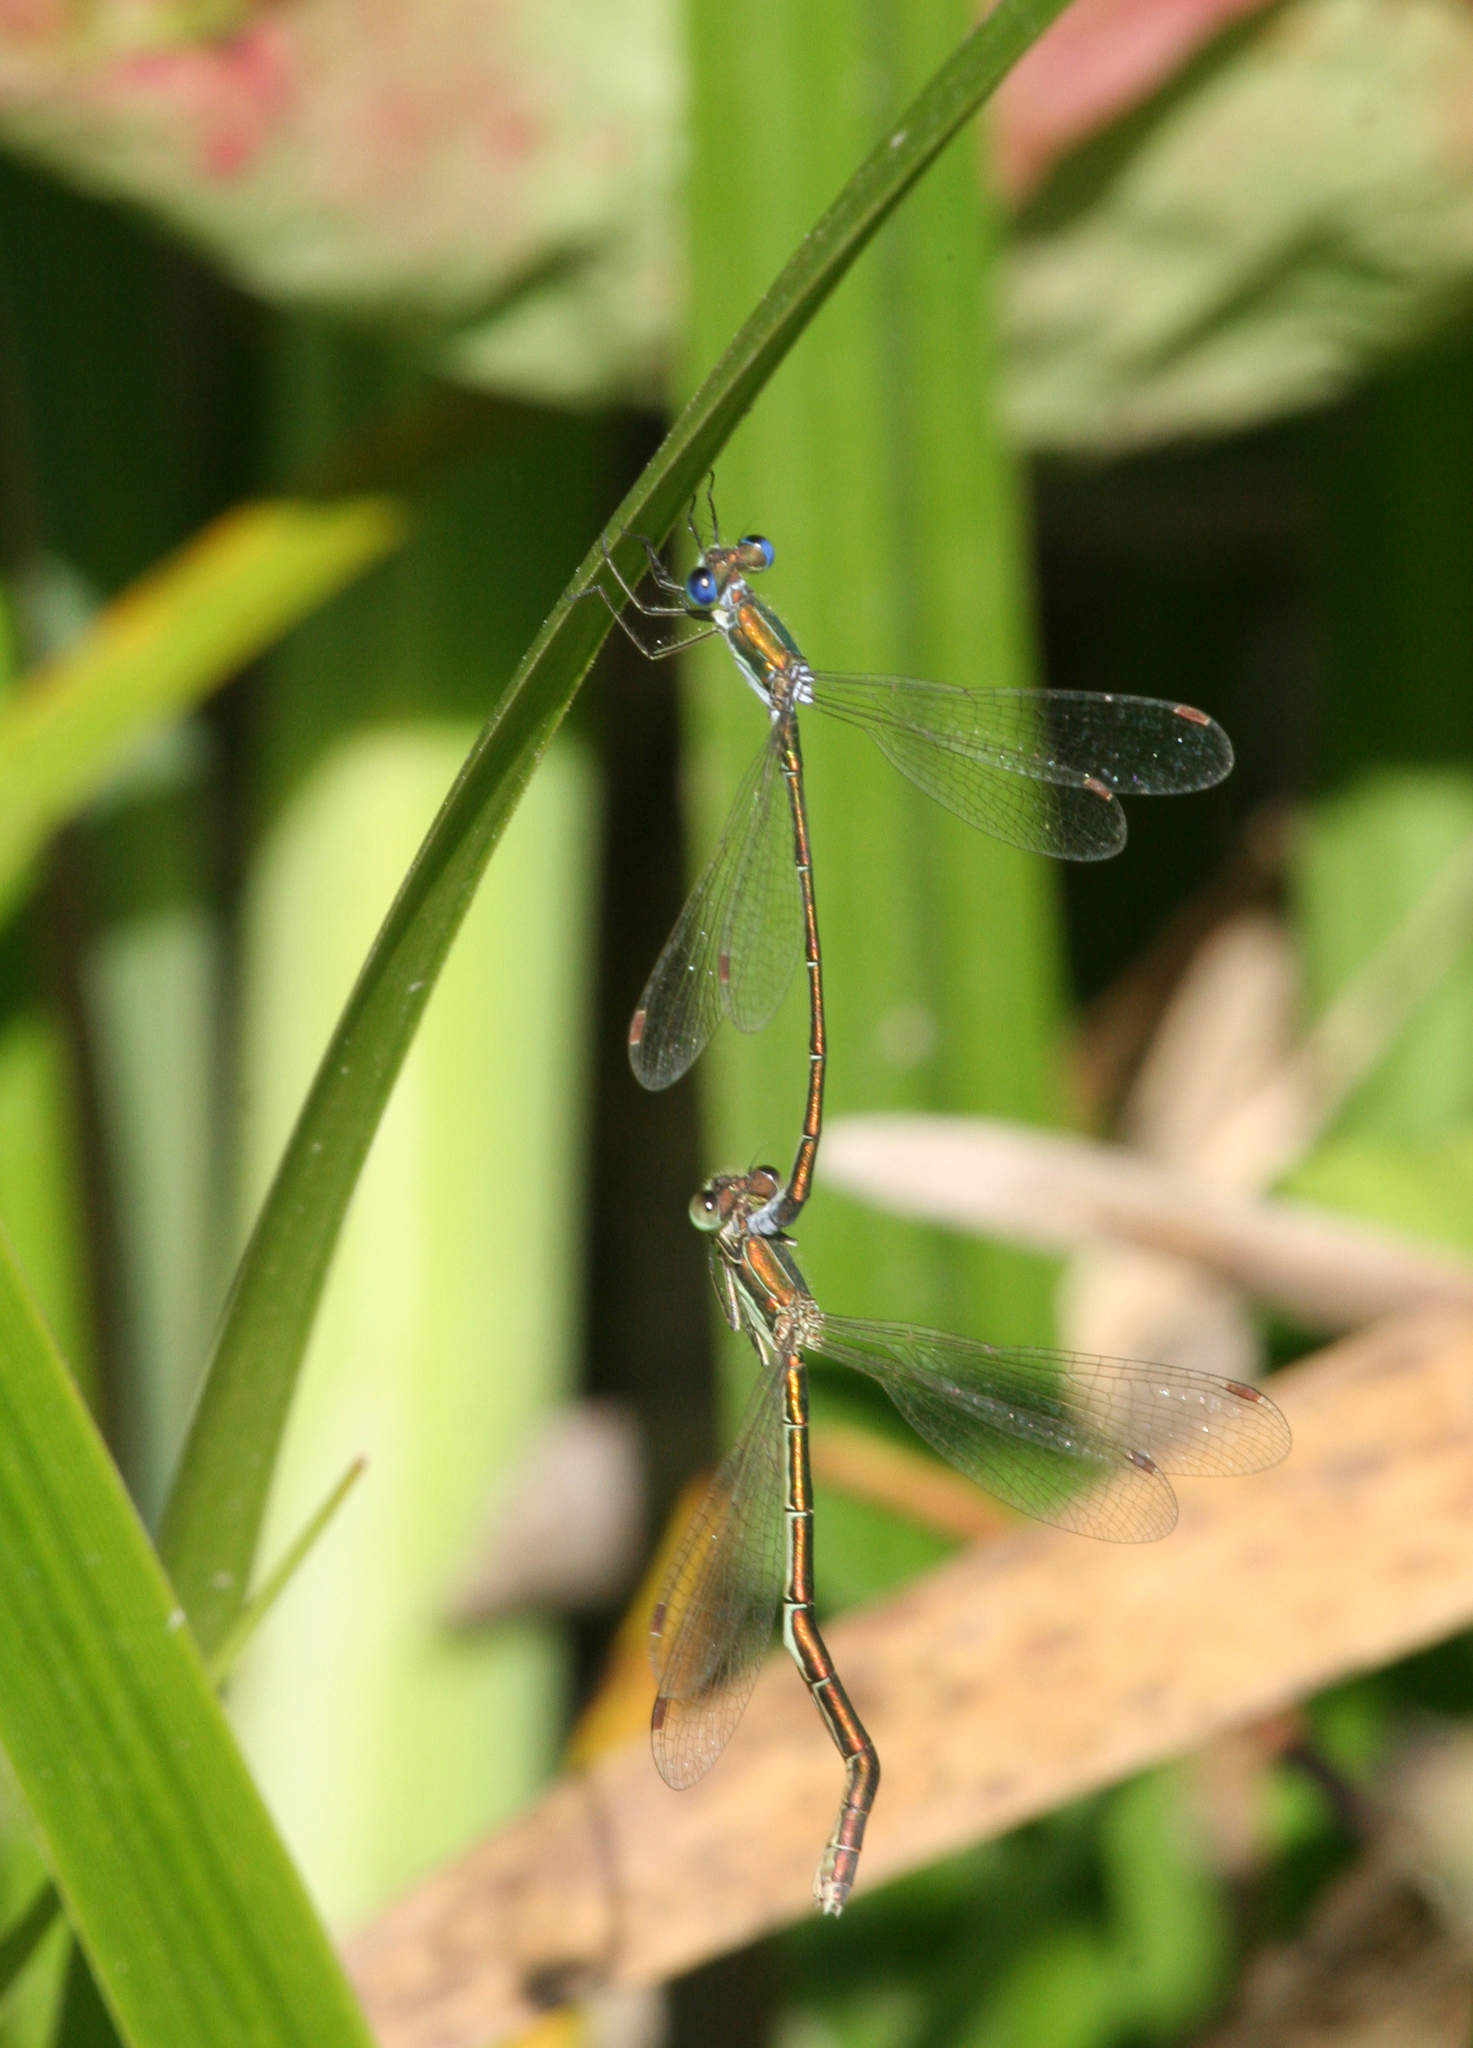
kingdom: Animalia
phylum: Arthropoda
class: Insecta
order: Odonata
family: Lestidae
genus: Lestes
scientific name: Lestes virens
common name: Small emerald spreadwing
